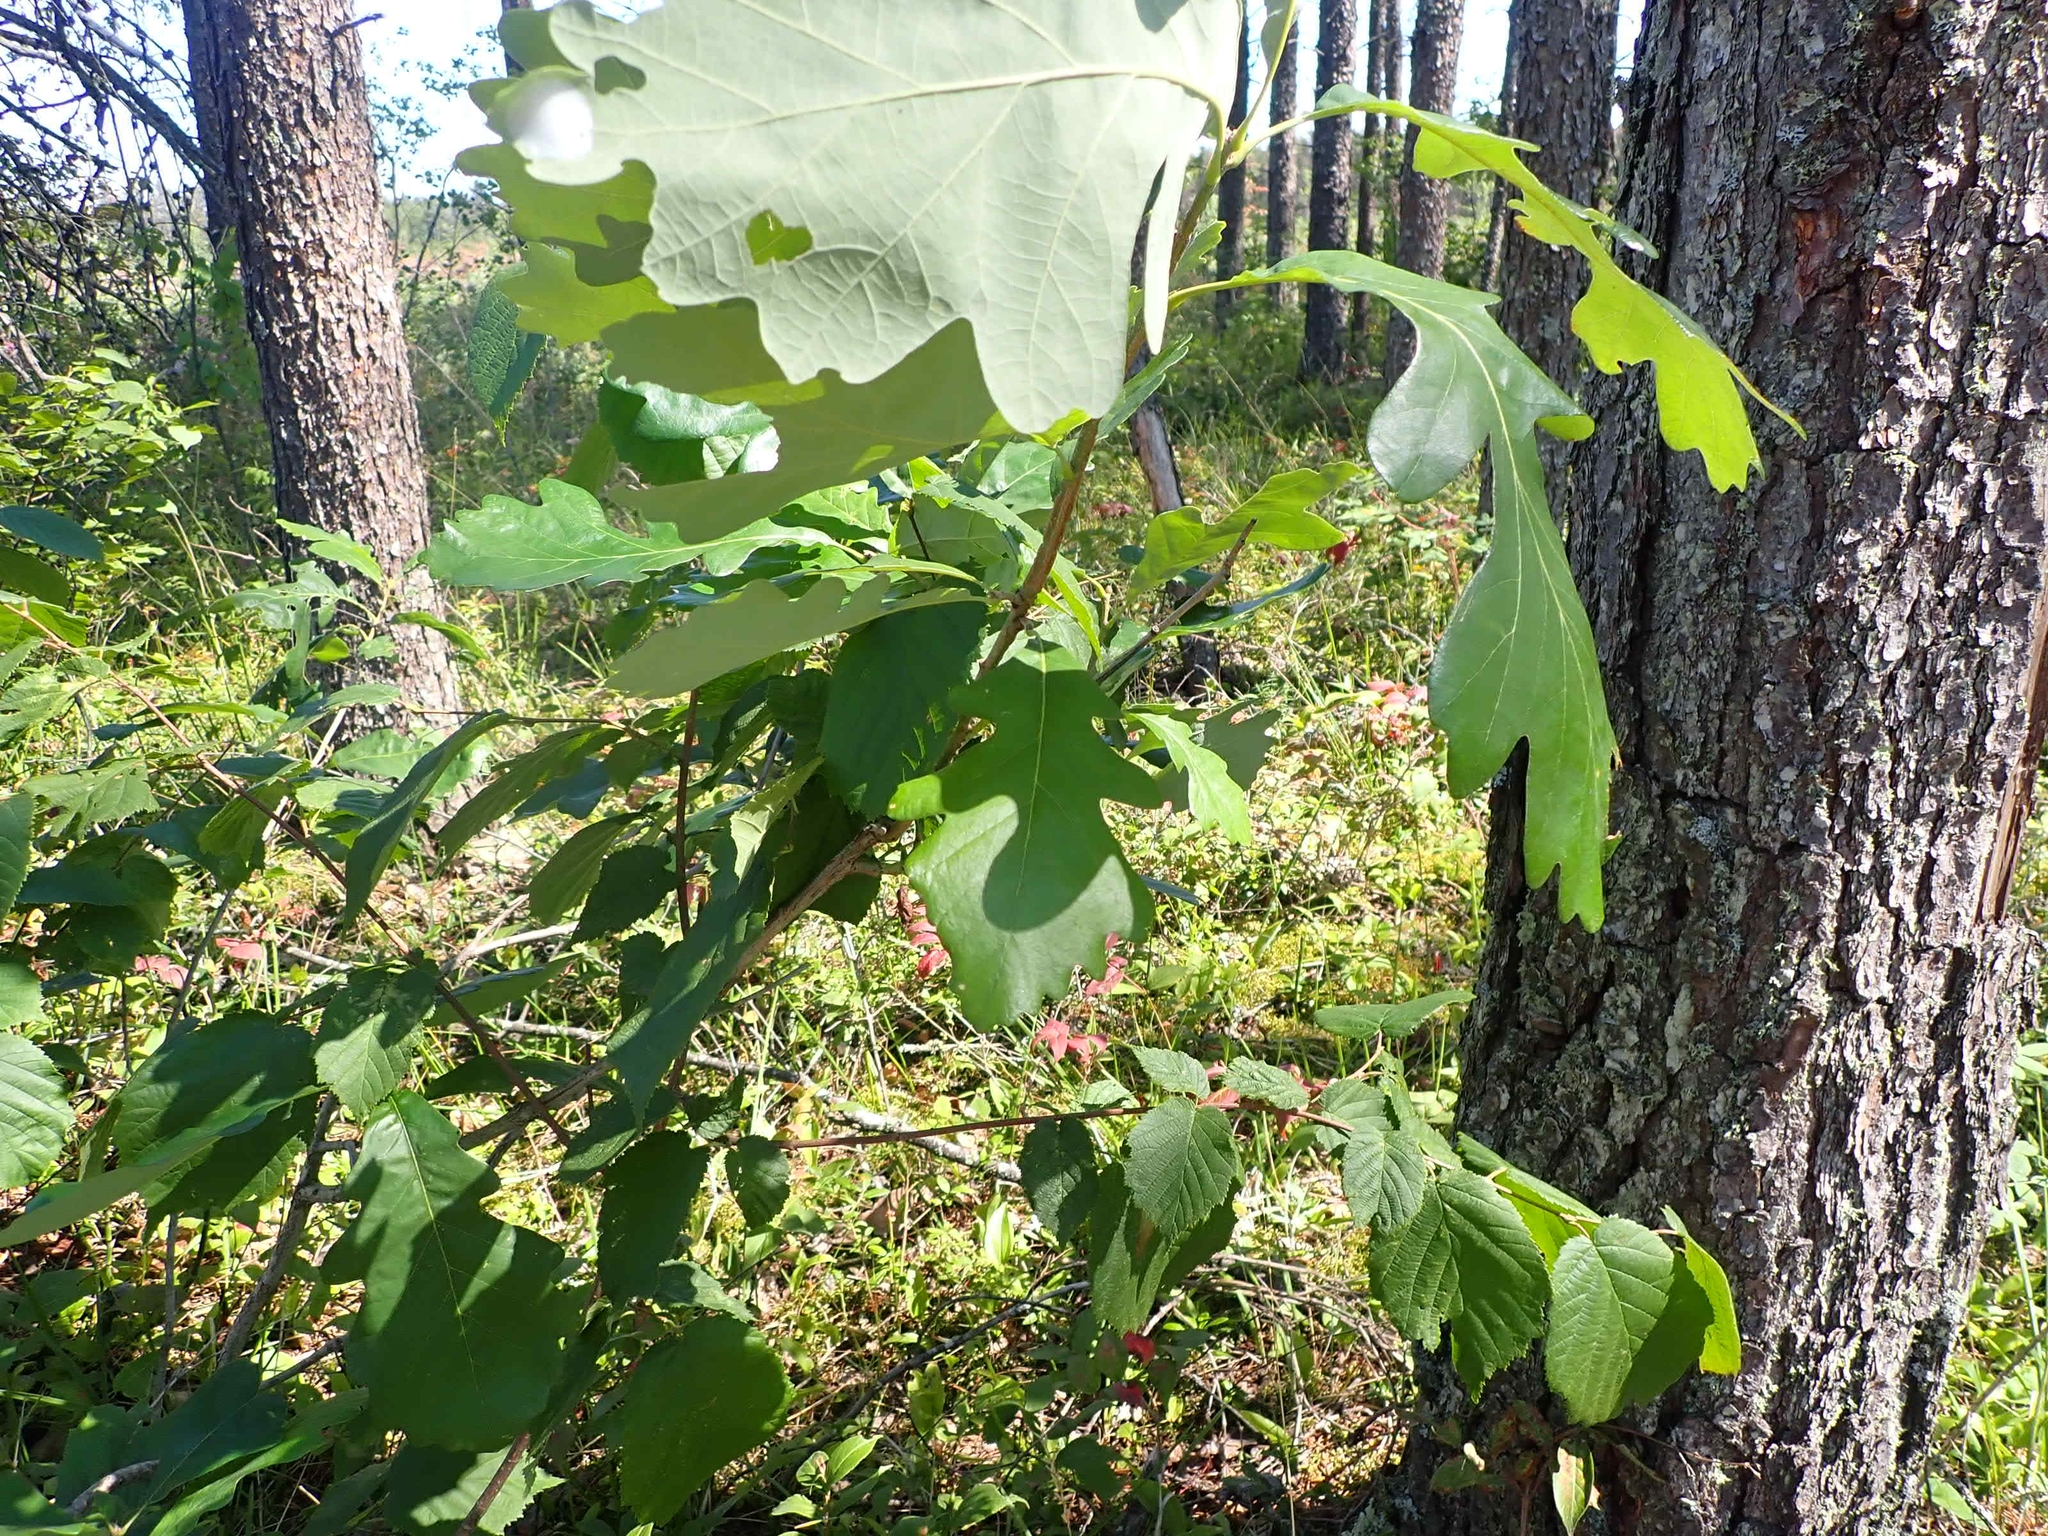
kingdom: Plantae
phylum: Tracheophyta
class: Magnoliopsida
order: Fagales
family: Fagaceae
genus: Quercus
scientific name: Quercus macrocarpa
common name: Bur oak
